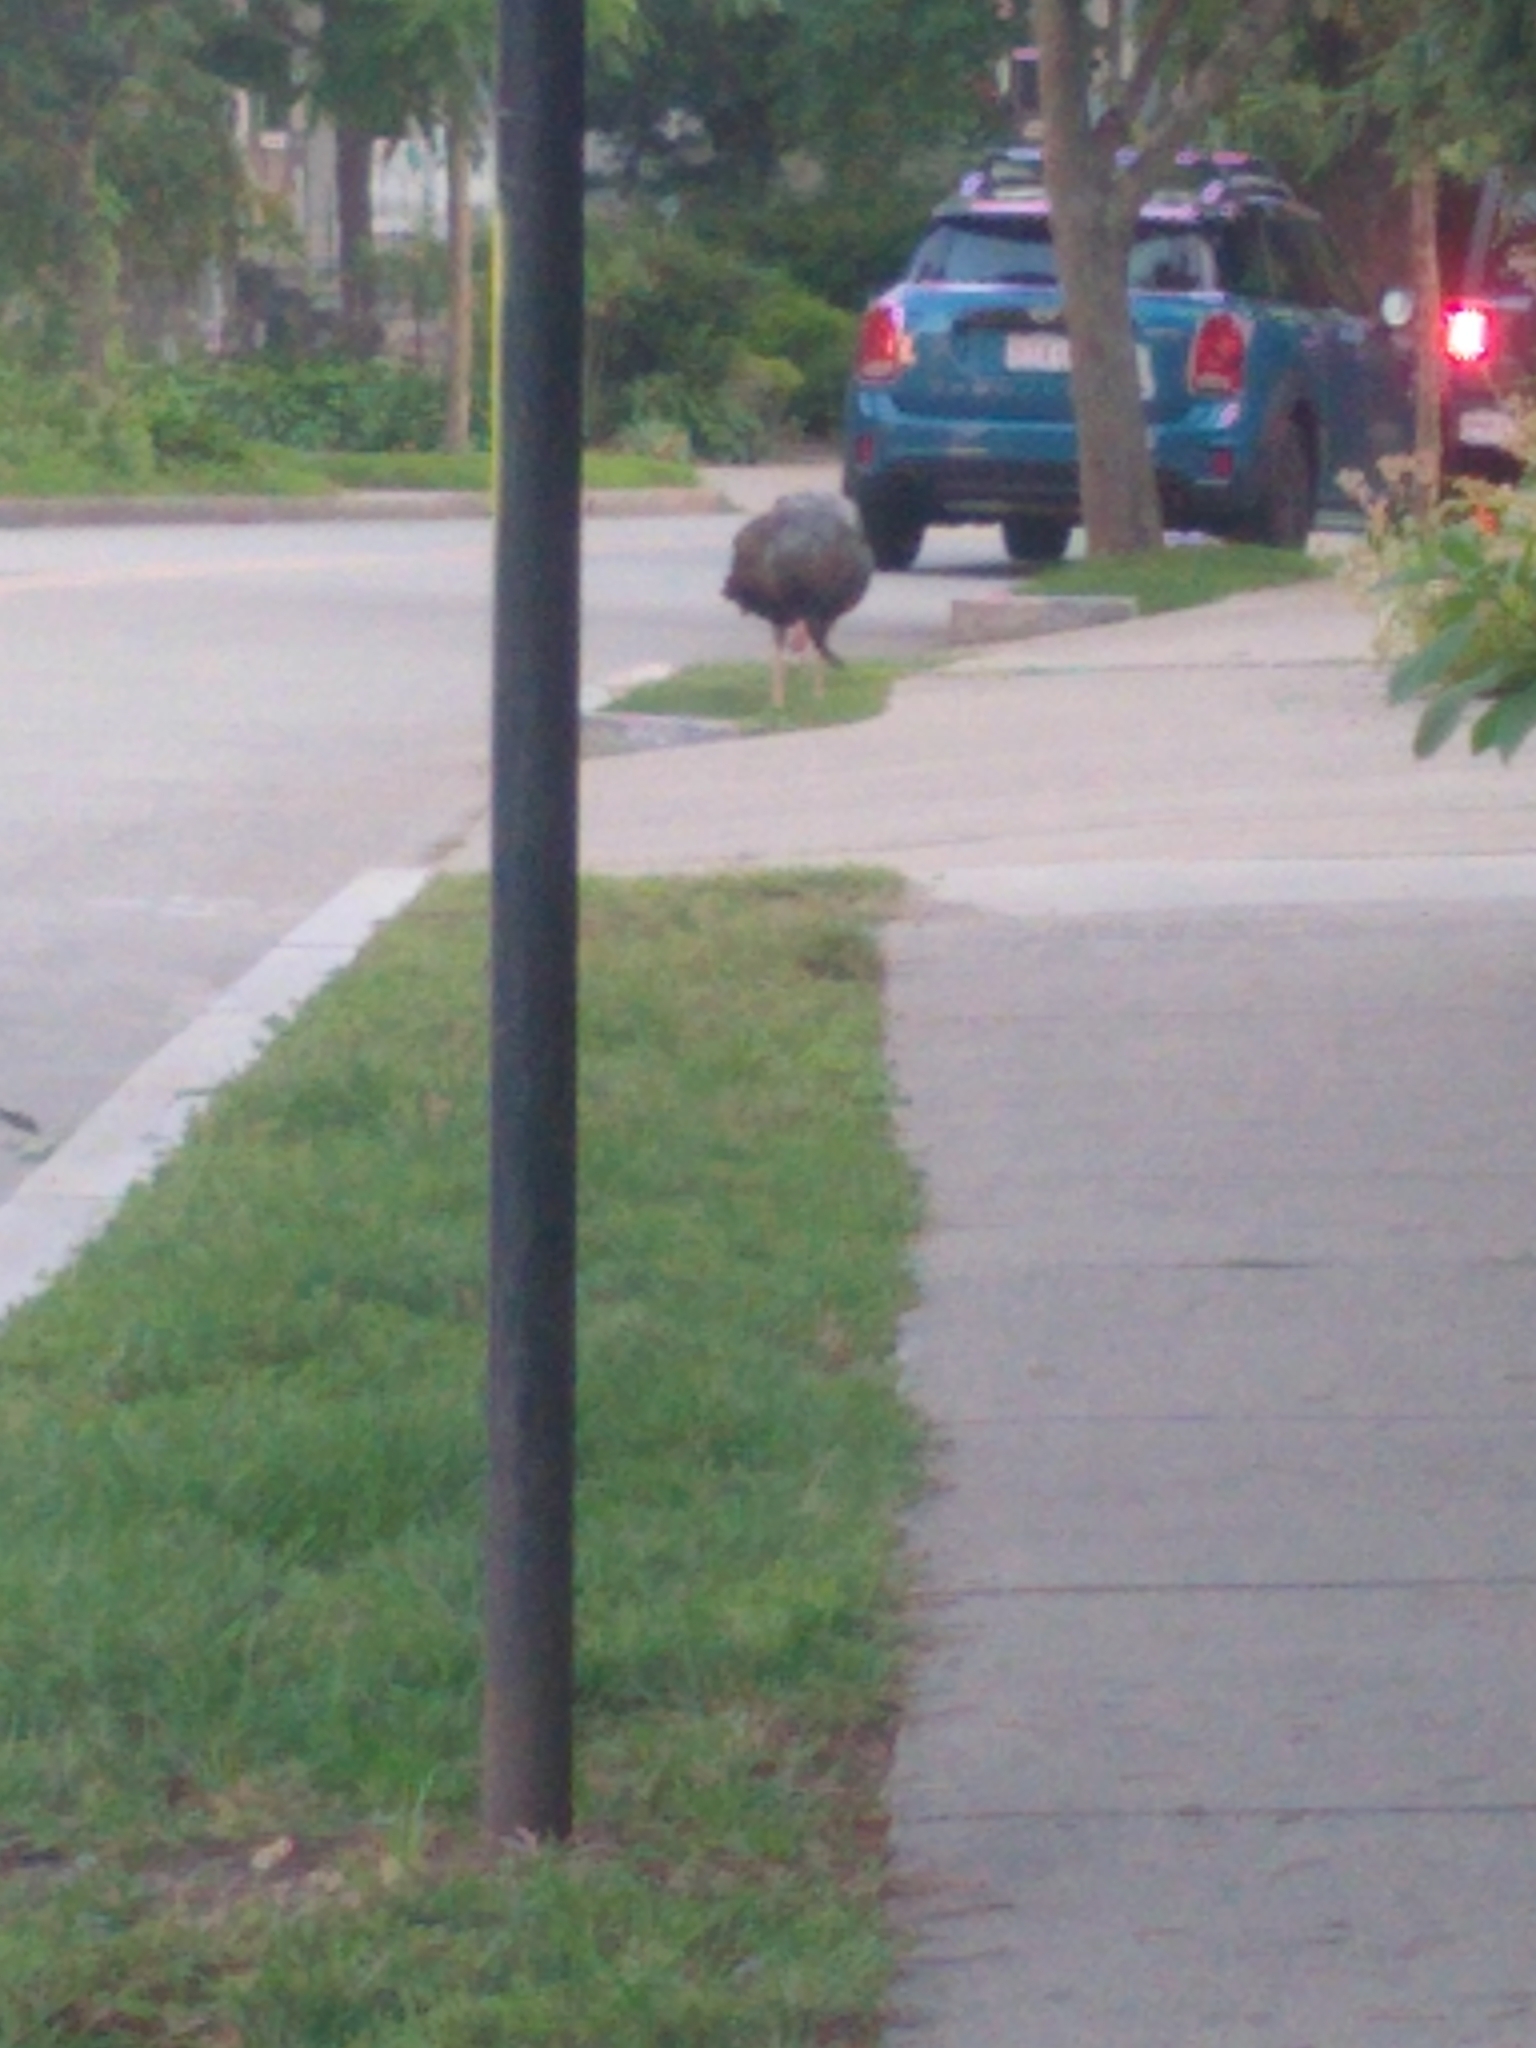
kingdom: Animalia
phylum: Chordata
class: Aves
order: Galliformes
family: Phasianidae
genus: Meleagris
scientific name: Meleagris gallopavo
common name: Wild turkey
